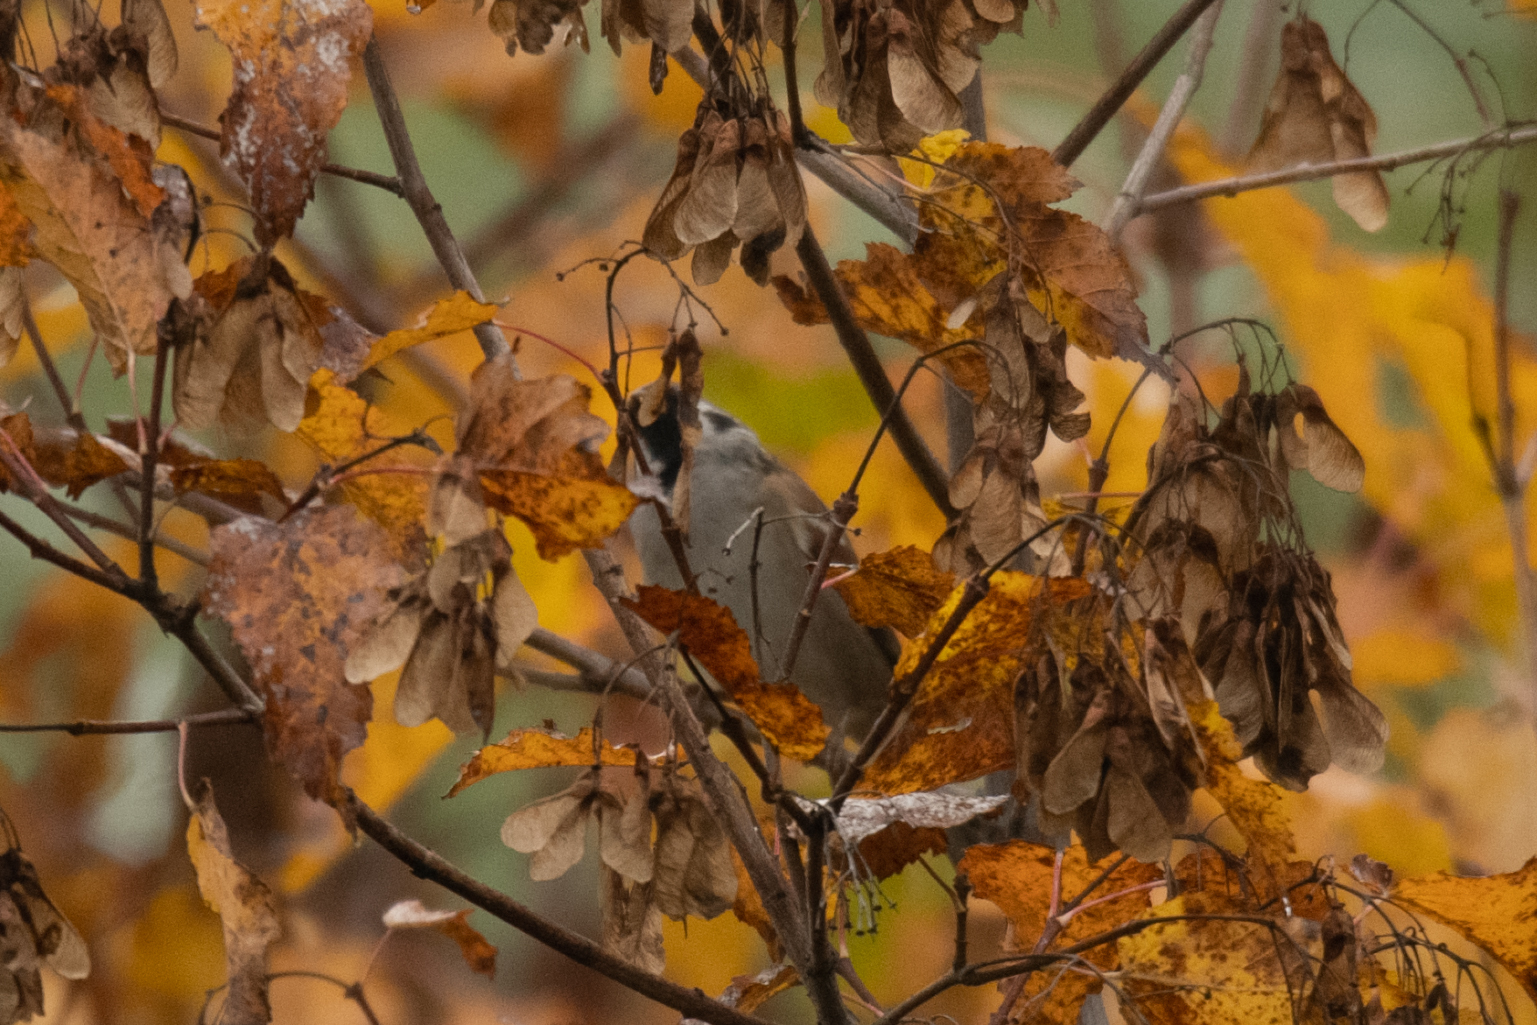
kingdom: Animalia
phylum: Chordata
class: Aves
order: Passeriformes
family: Passeridae
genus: Passer
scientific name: Passer montanus
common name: Eurasian tree sparrow
